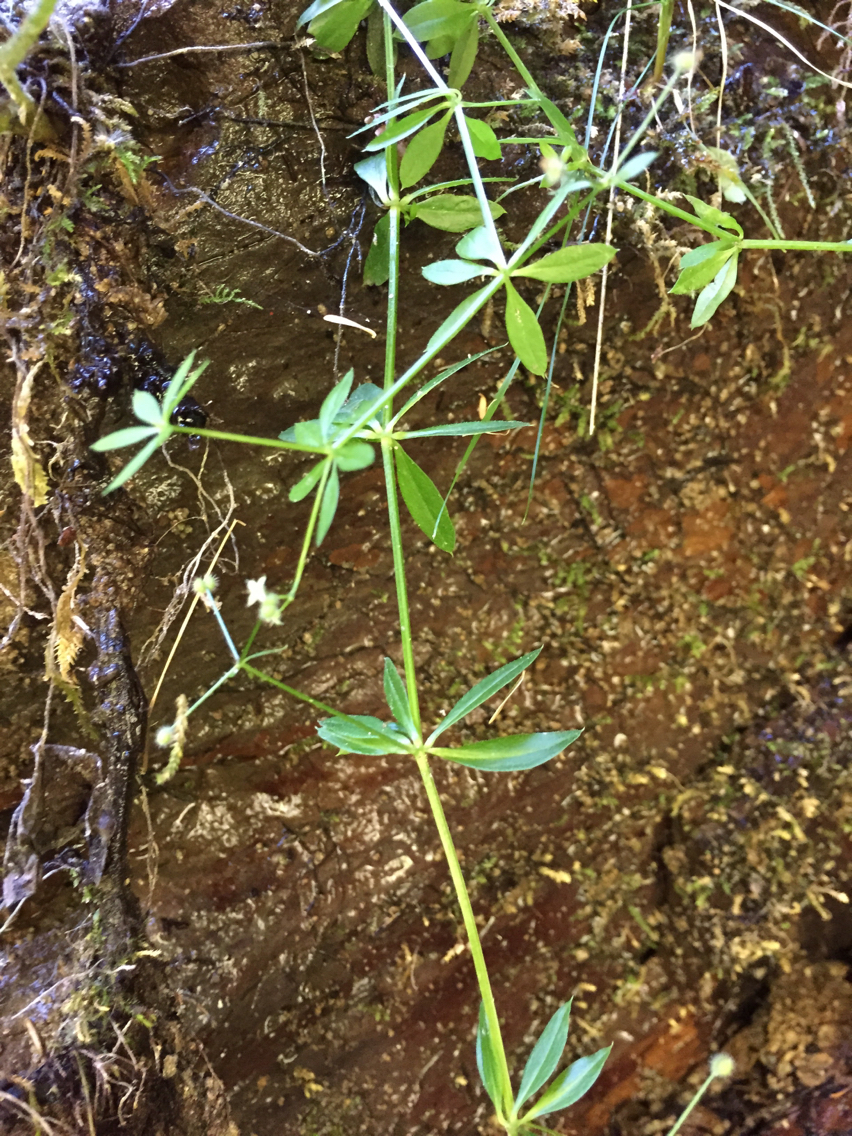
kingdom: Plantae
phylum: Tracheophyta
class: Magnoliopsida
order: Gentianales
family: Rubiaceae
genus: Galium
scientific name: Galium aparine
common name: Cleavers
